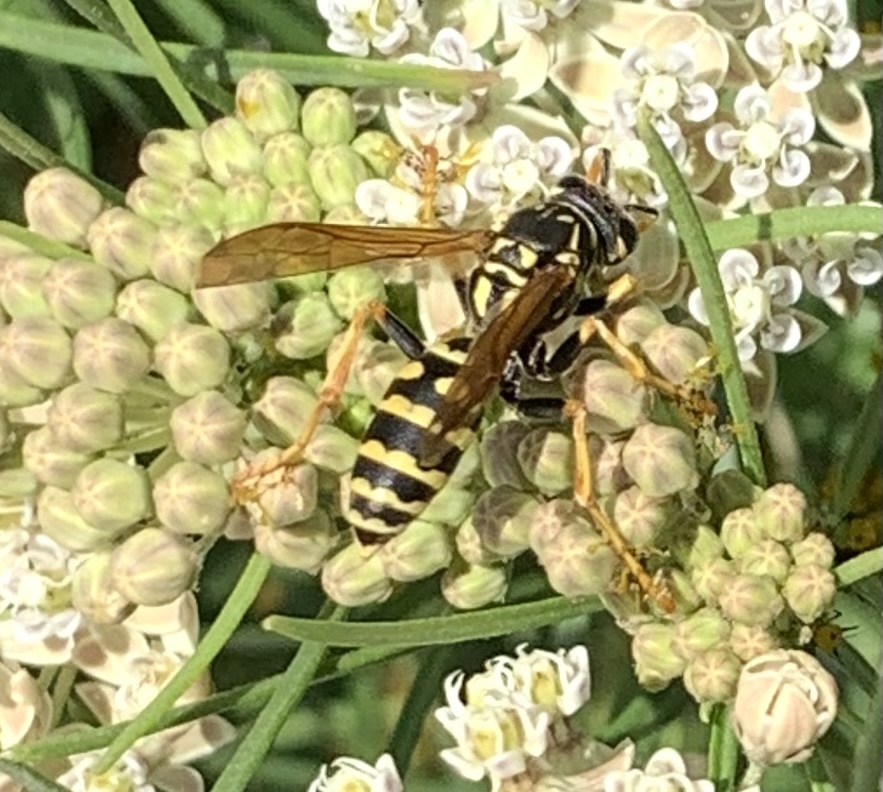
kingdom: Animalia
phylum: Arthropoda
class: Insecta
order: Hymenoptera
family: Eumenidae
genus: Polistes
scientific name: Polistes dominula
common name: Paper wasp
